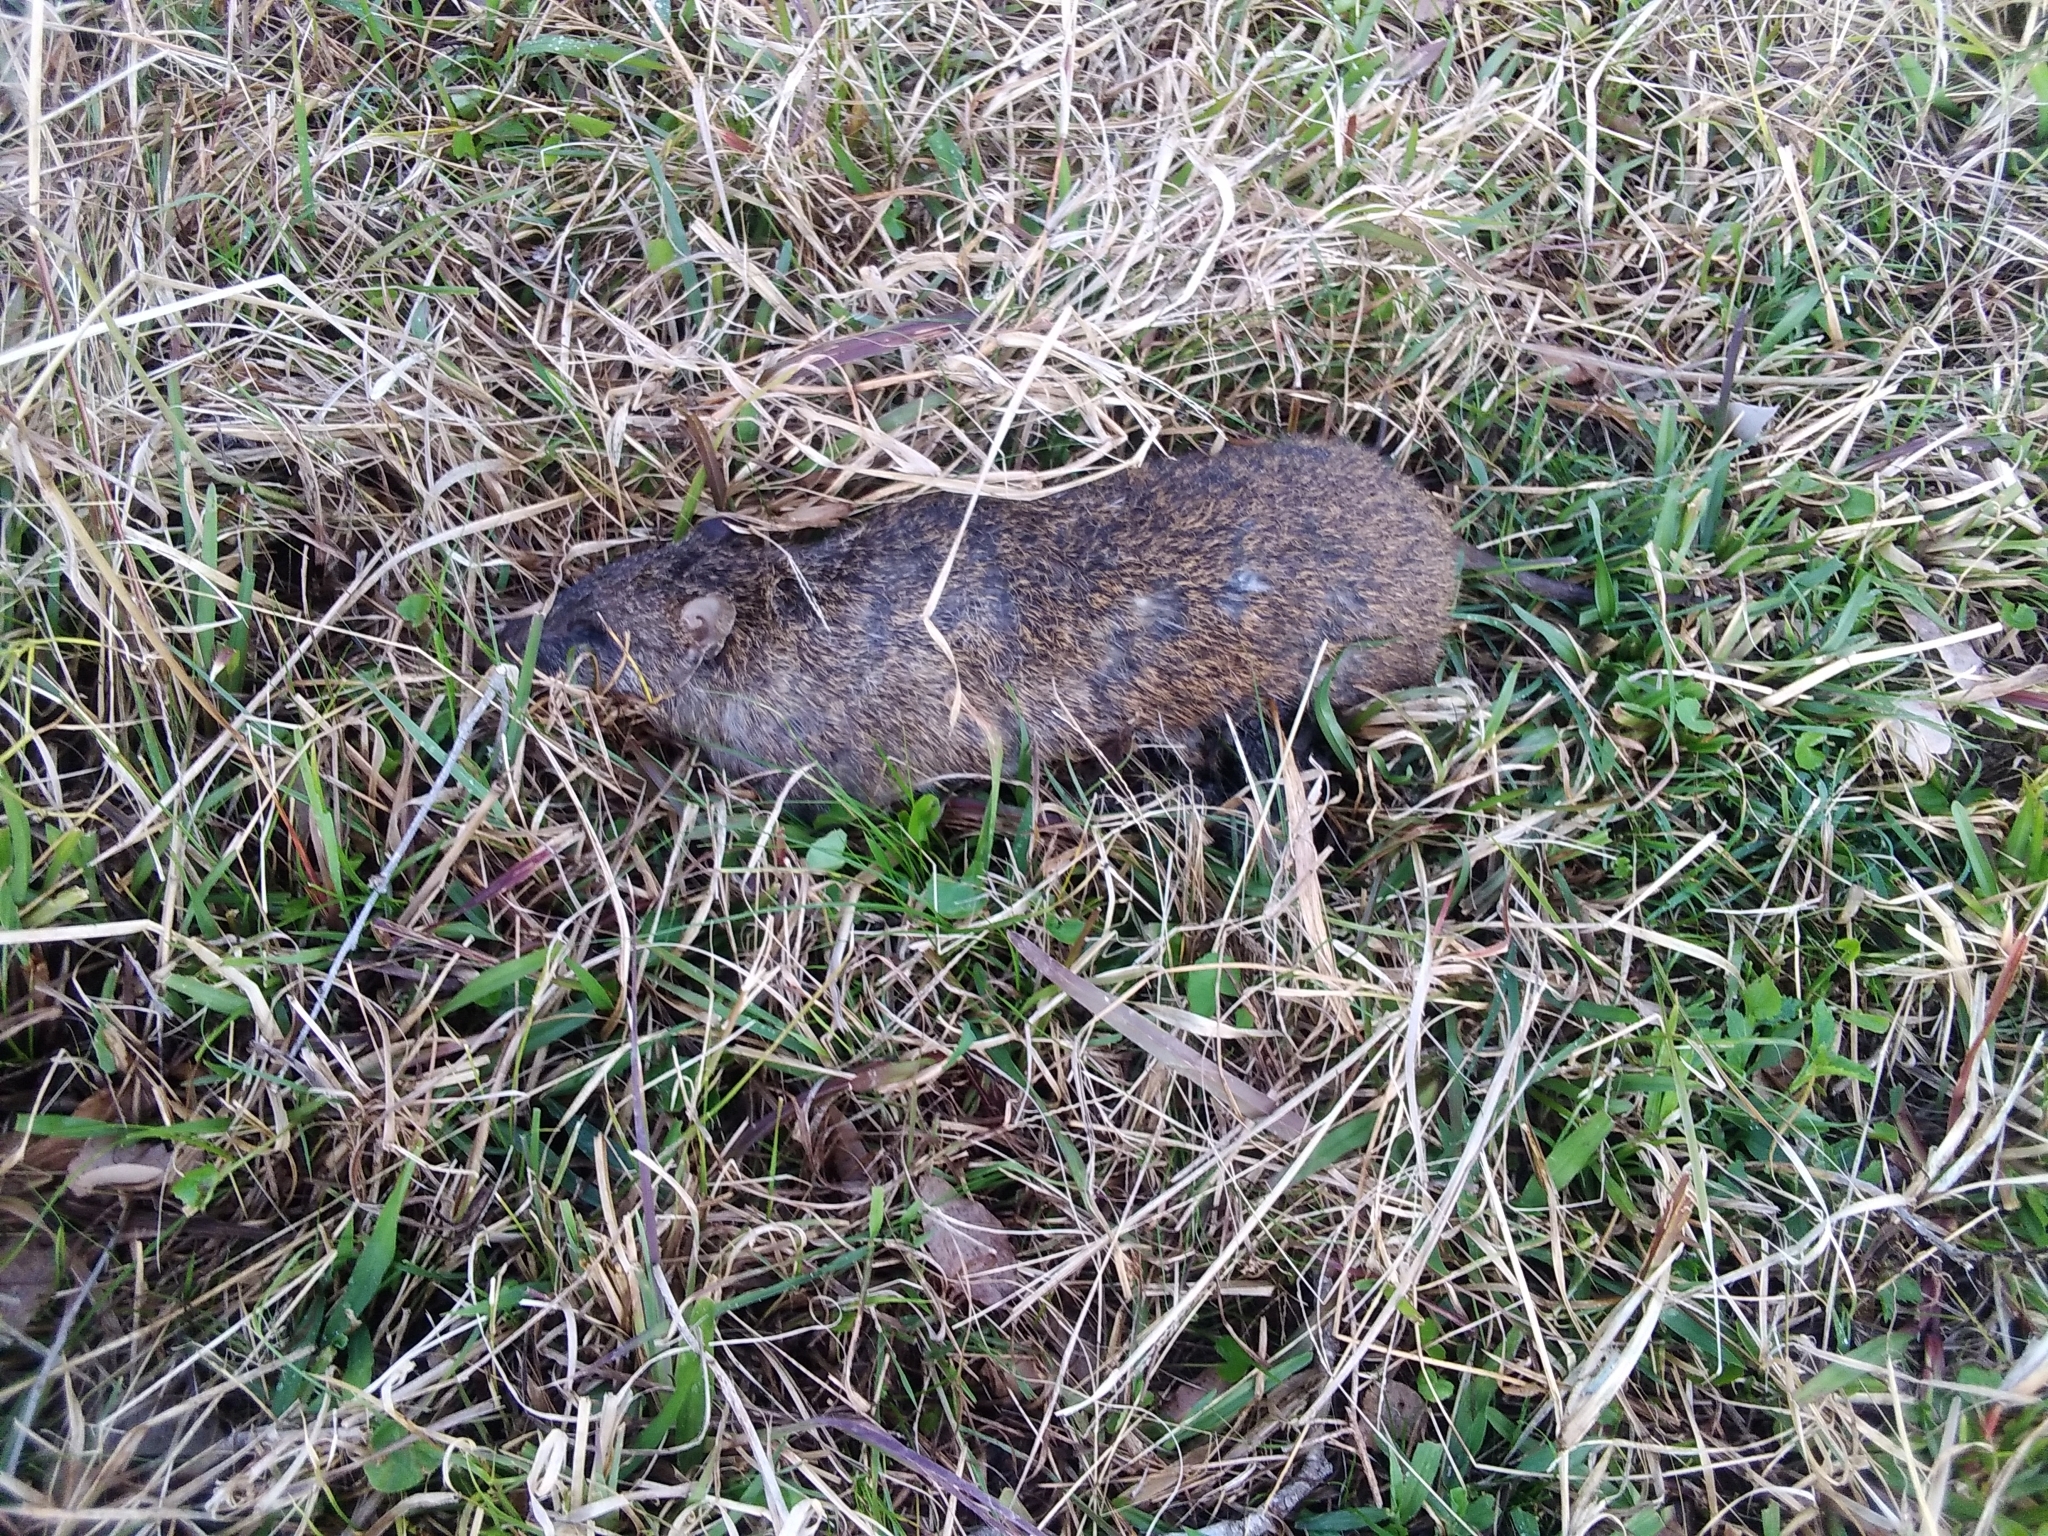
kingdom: Animalia
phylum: Chordata
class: Mammalia
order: Peramelemorphia
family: Peramelidae
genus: Isoodon
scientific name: Isoodon macrourus
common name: Northern brown bandicoot
